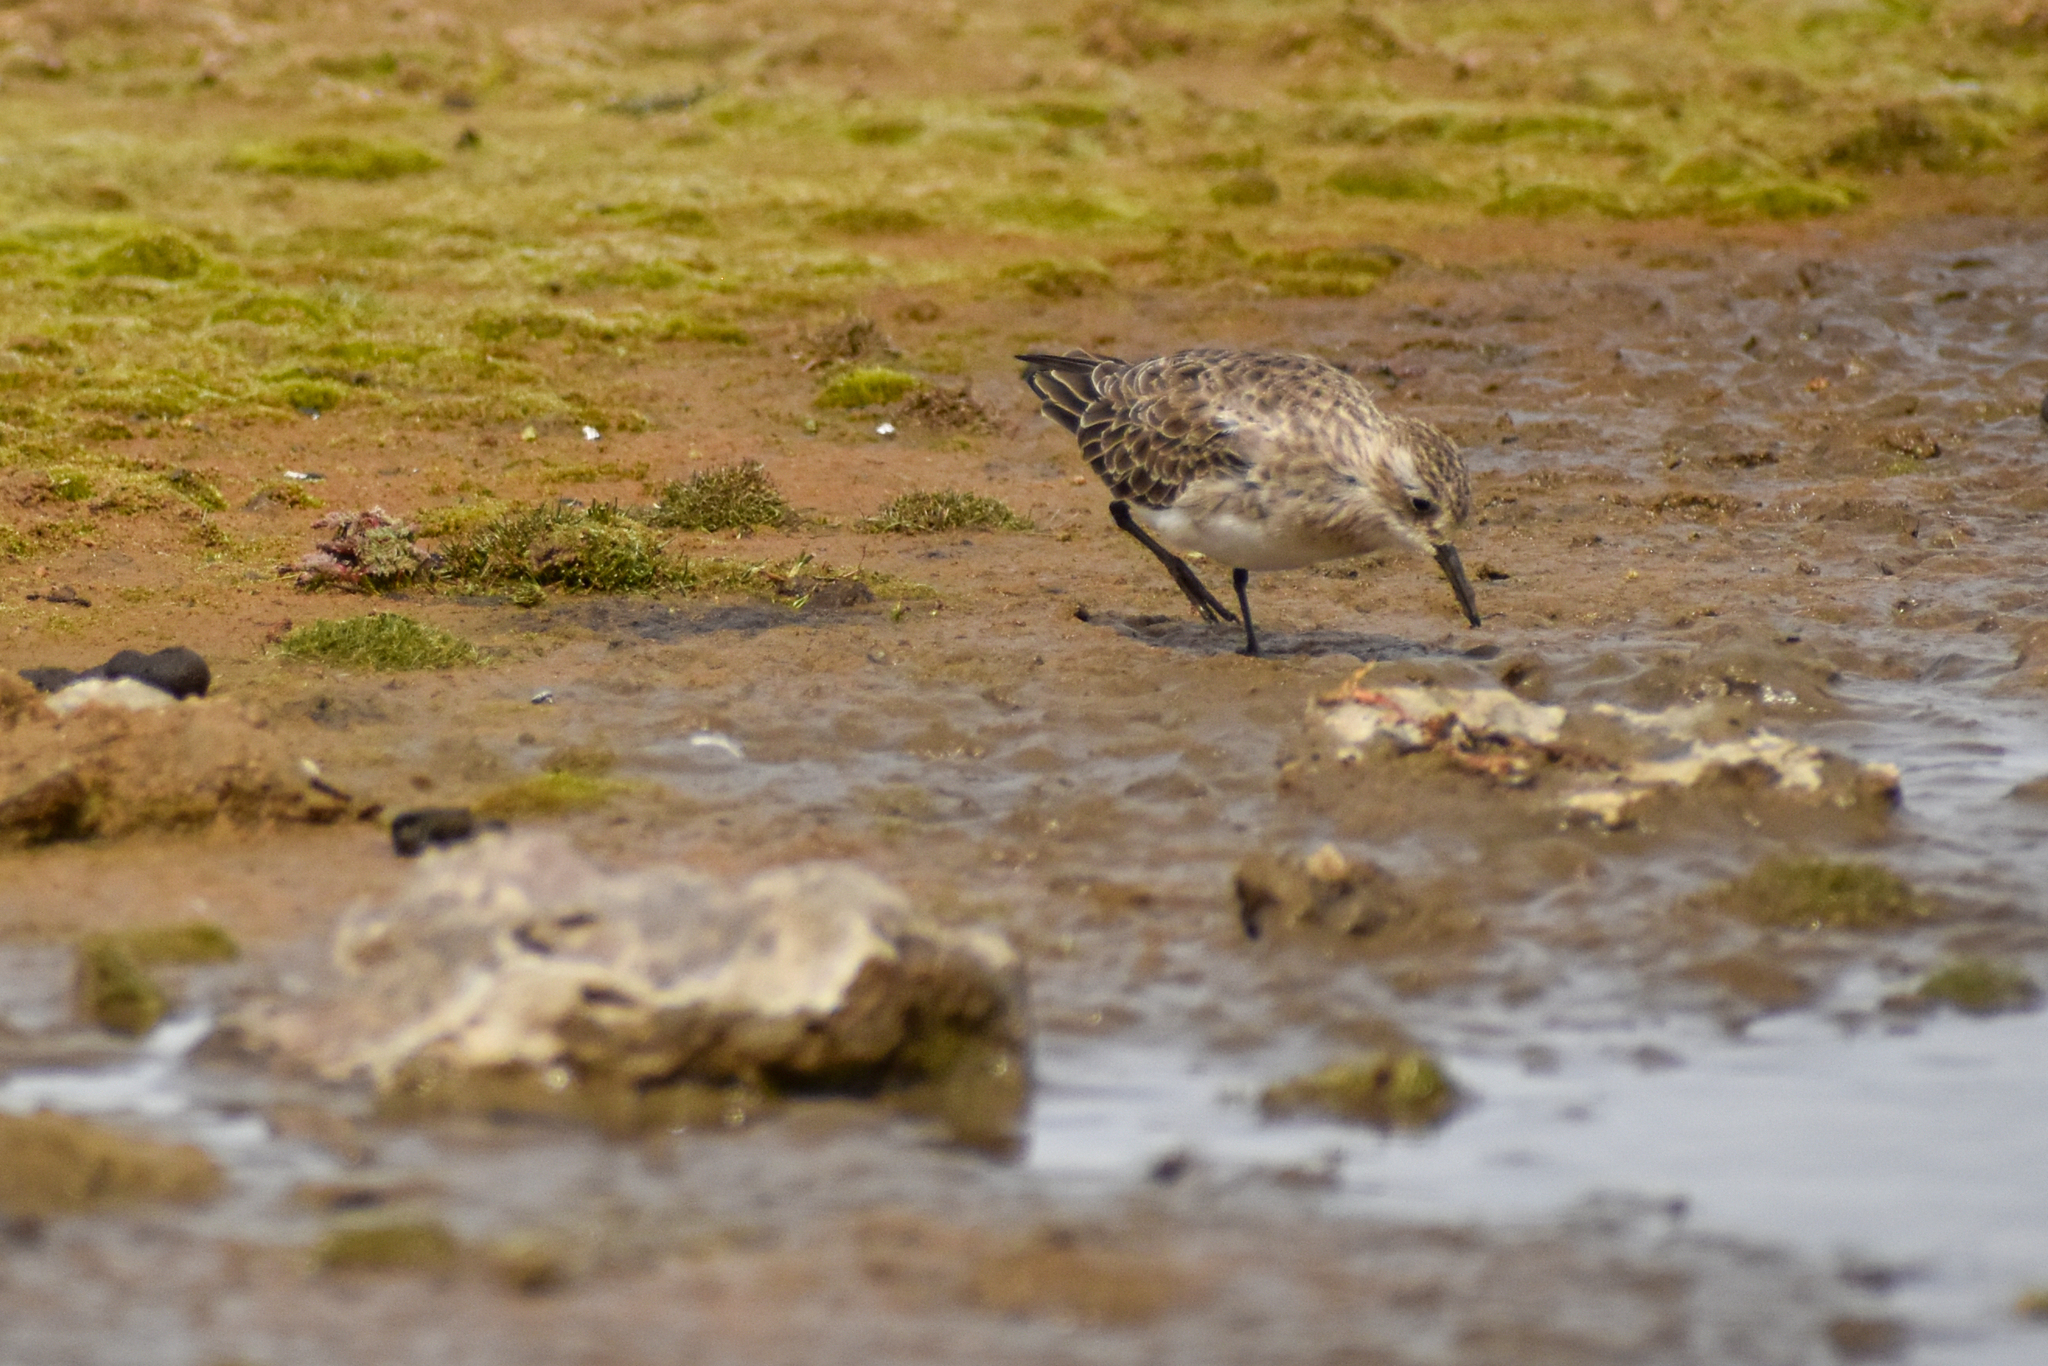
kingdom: Animalia
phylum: Chordata
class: Aves
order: Charadriiformes
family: Scolopacidae
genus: Calidris
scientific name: Calidris bairdii
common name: Baird's sandpiper
